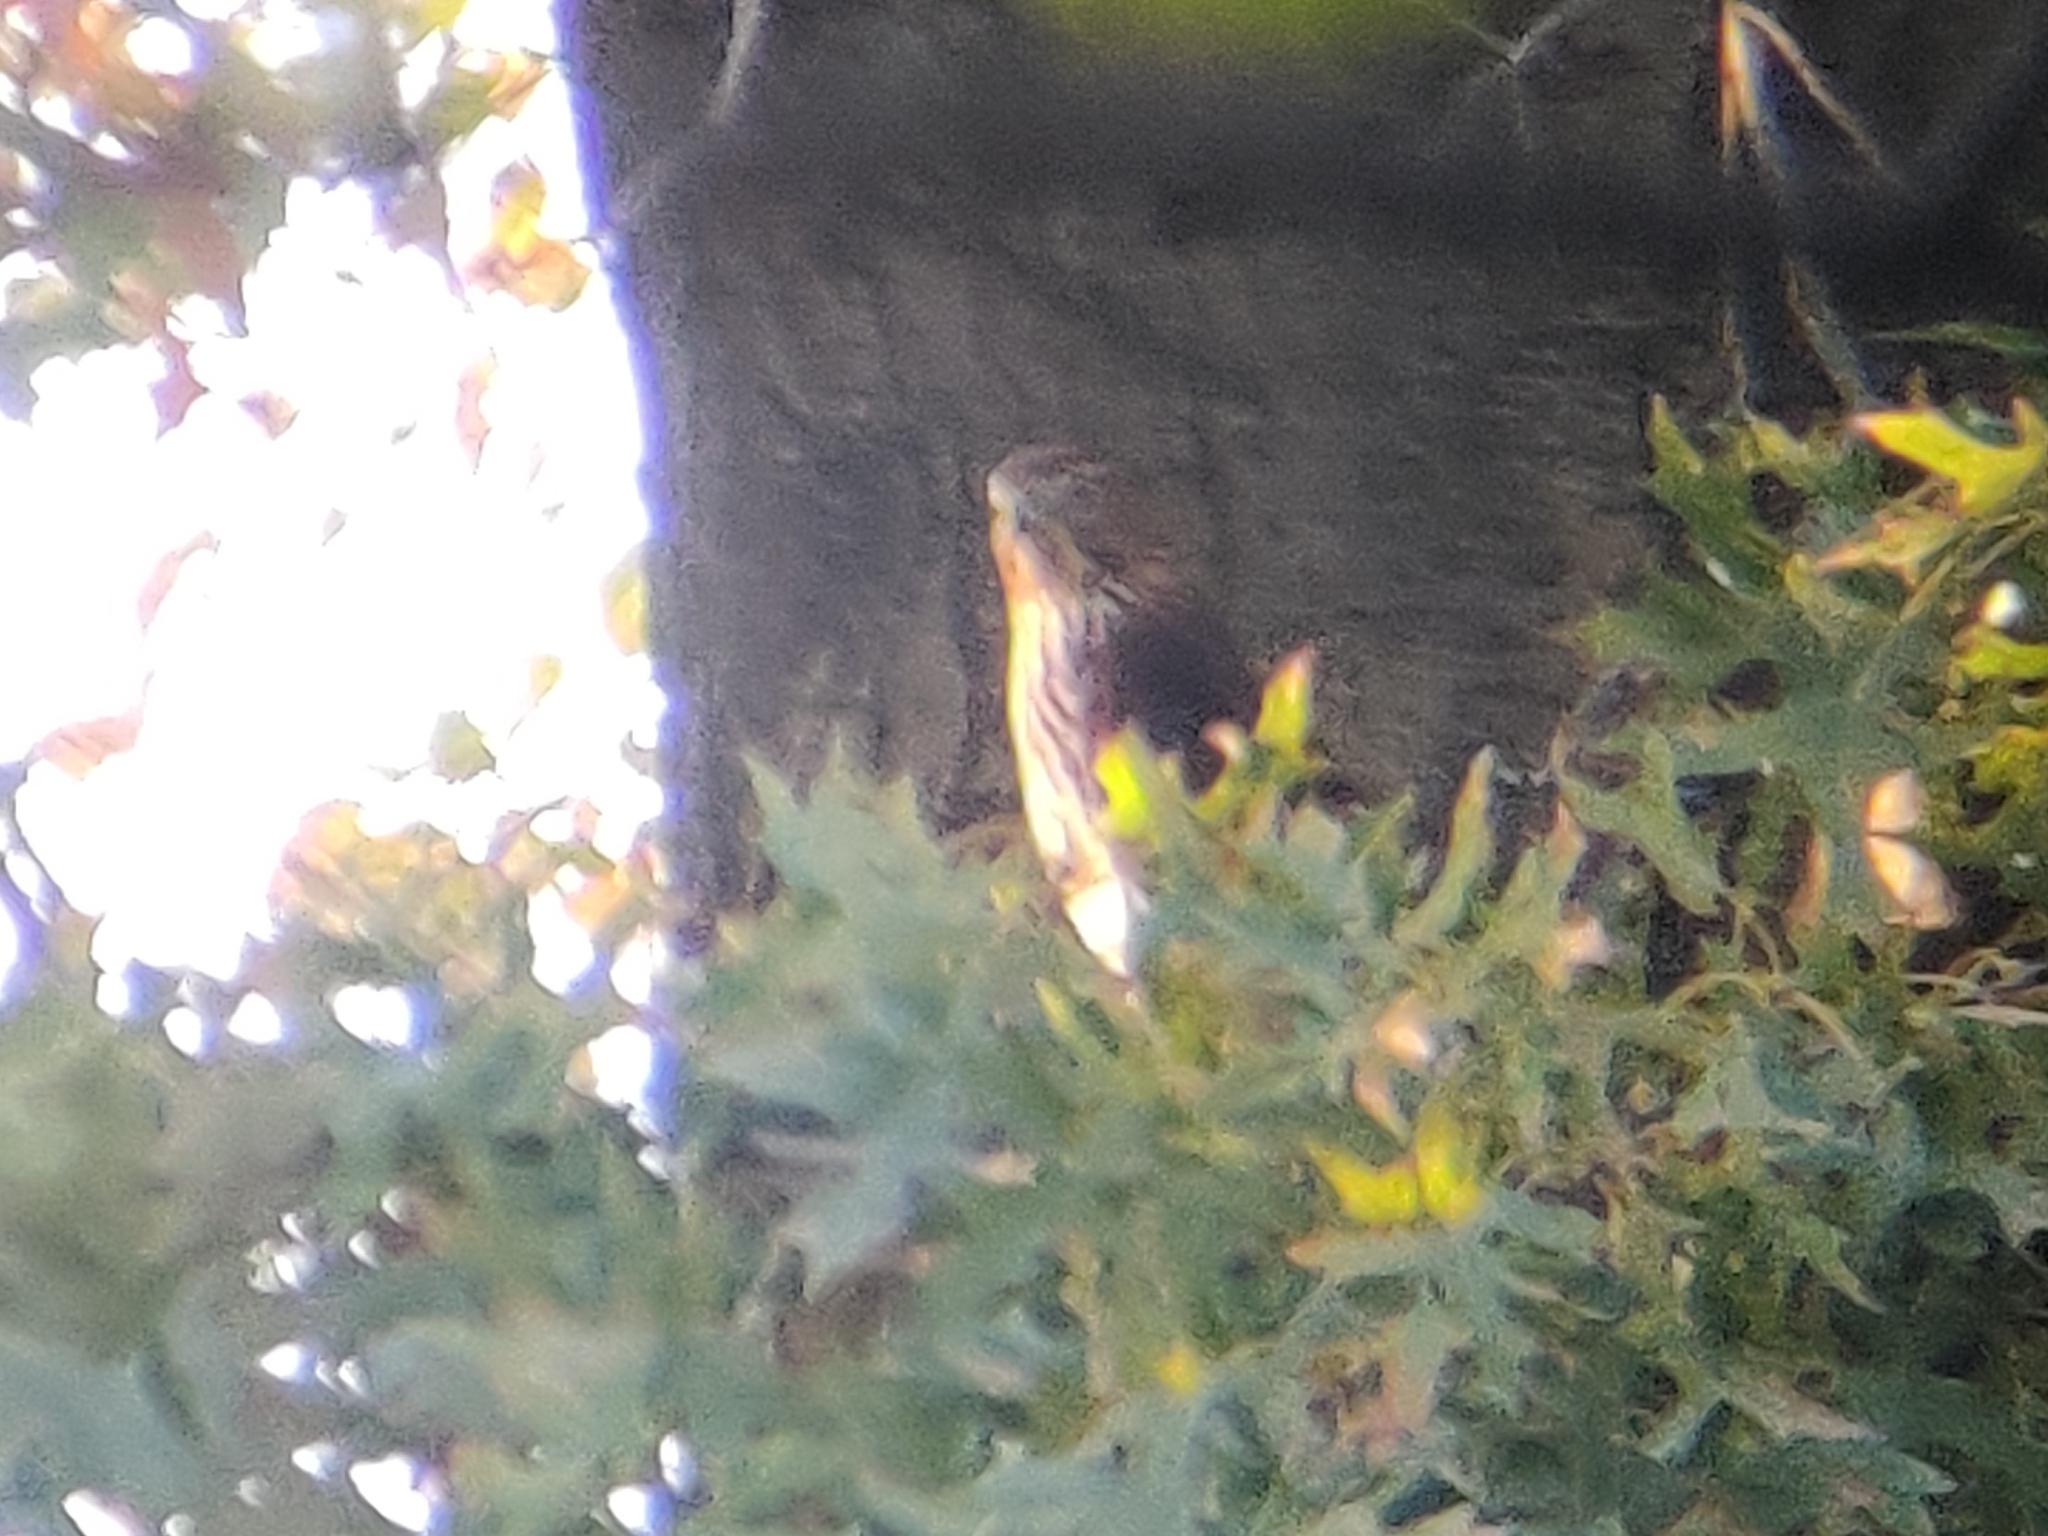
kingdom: Animalia
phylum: Chordata
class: Aves
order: Accipitriformes
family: Accipitridae
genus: Accipiter
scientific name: Accipiter cooperii
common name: Cooper's hawk
